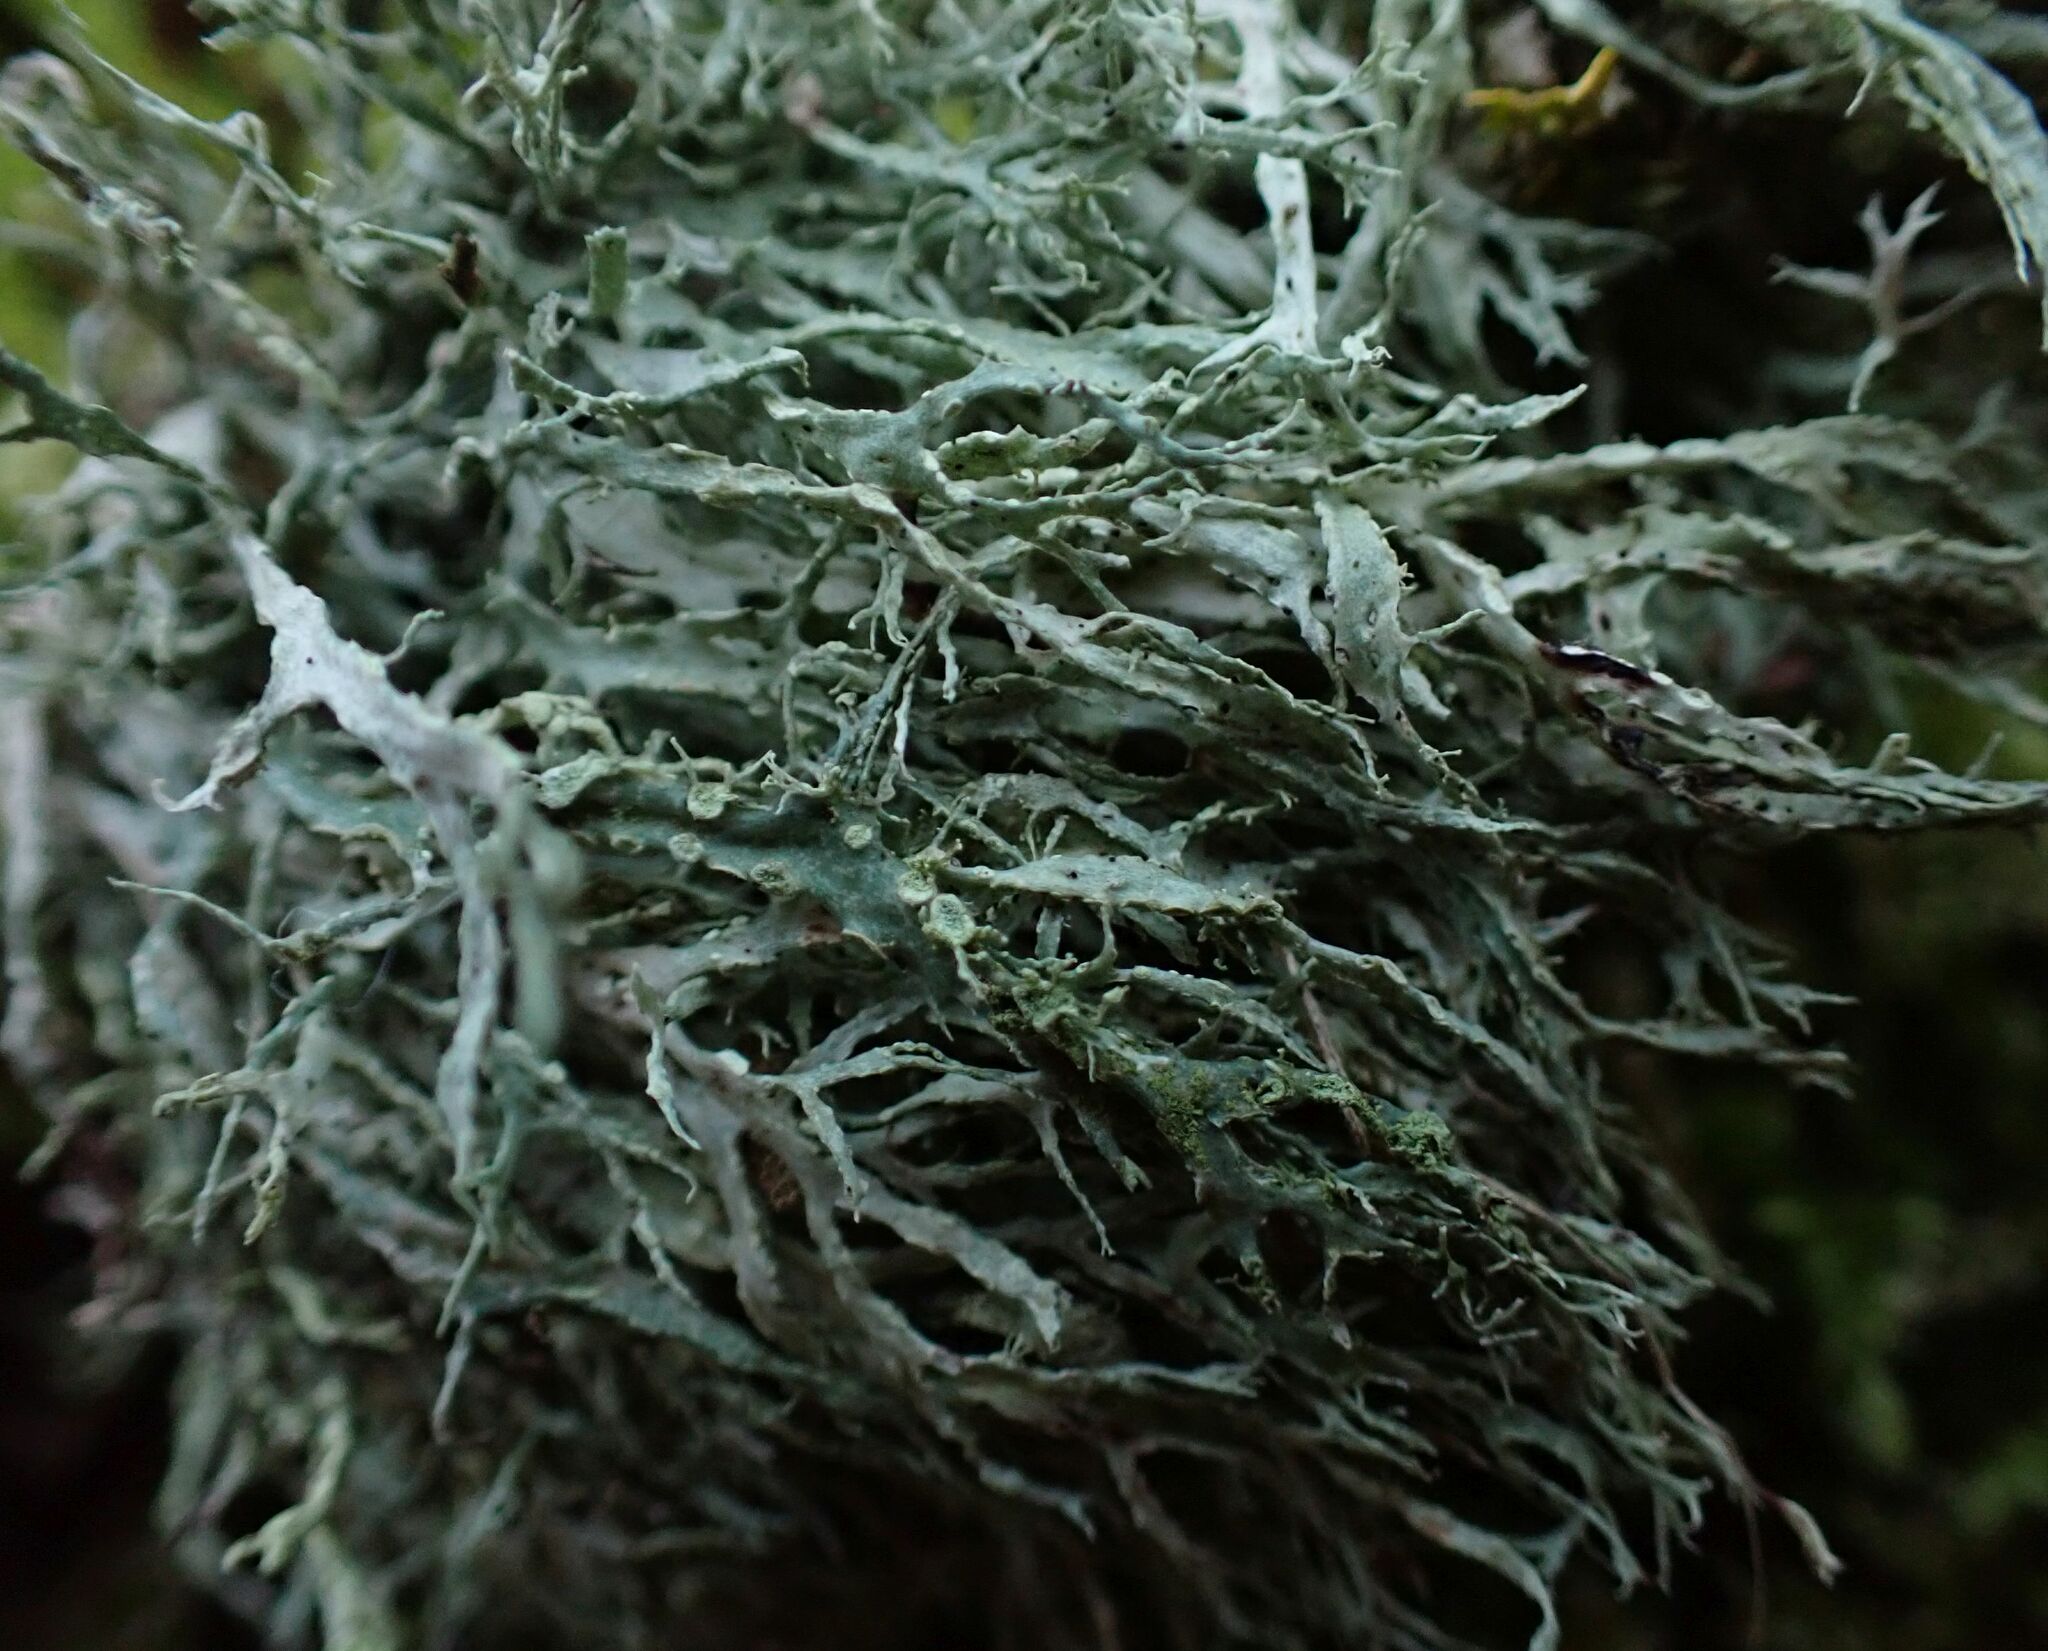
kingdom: Fungi
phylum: Ascomycota
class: Lecanoromycetes
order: Lecanorales
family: Ramalinaceae
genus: Ramalina
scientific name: Ramalina farinacea
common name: Farinose cartilage lichen
